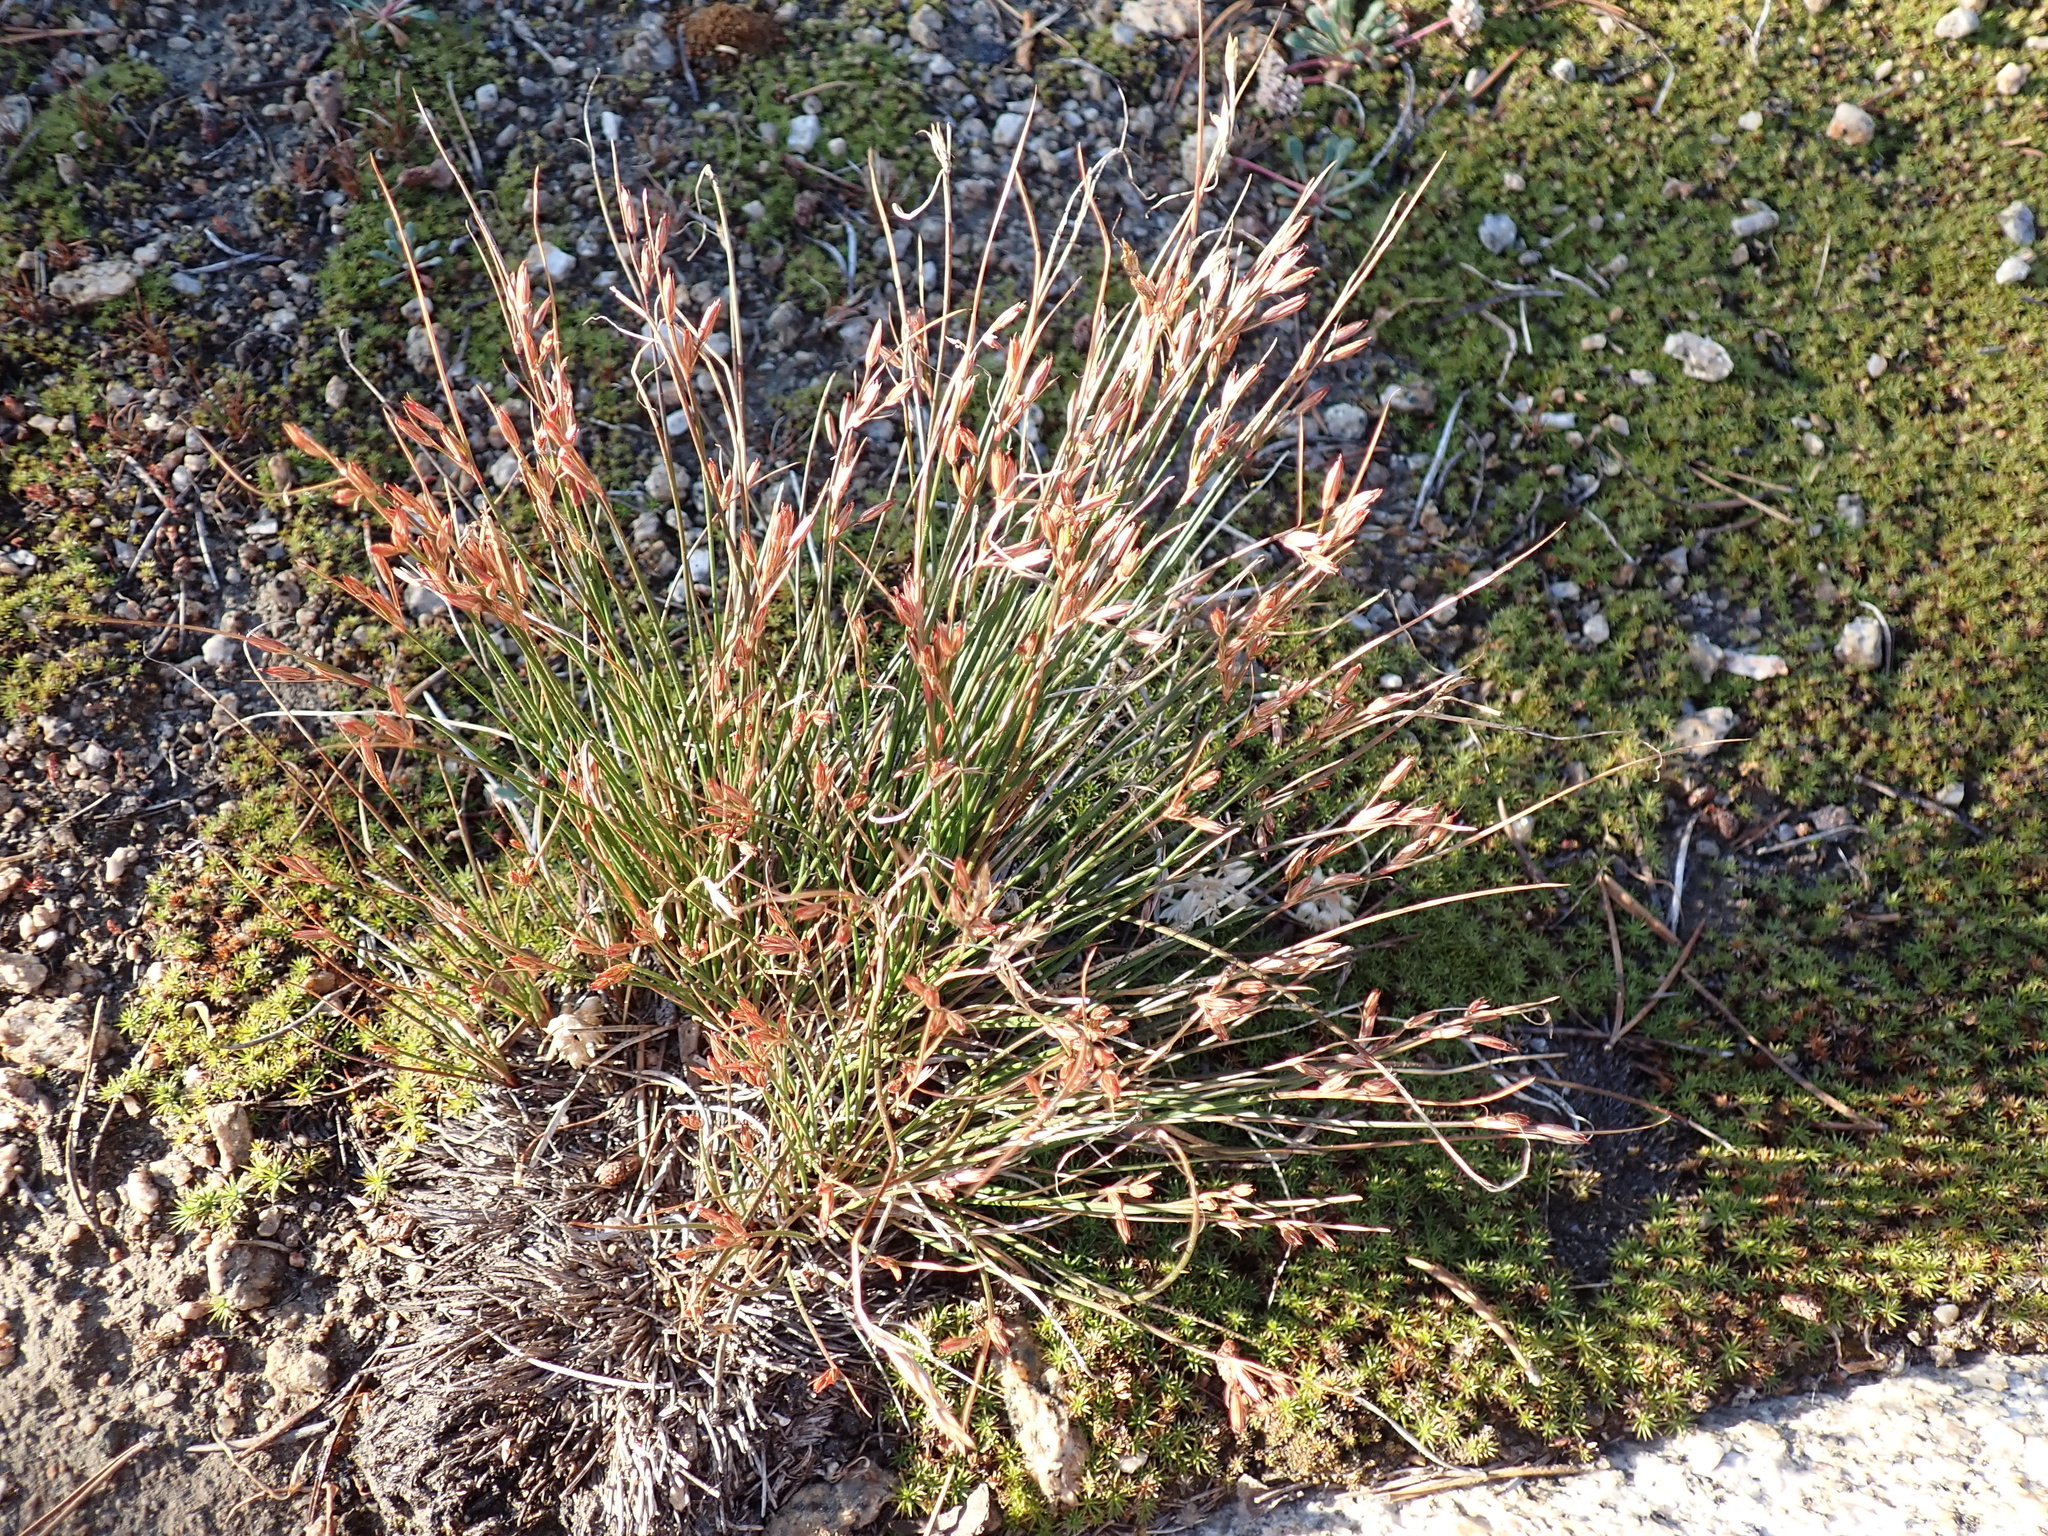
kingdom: Plantae
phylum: Tracheophyta
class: Liliopsida
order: Poales
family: Juncaceae
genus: Juncus
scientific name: Juncus parryi
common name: Parry's rush
